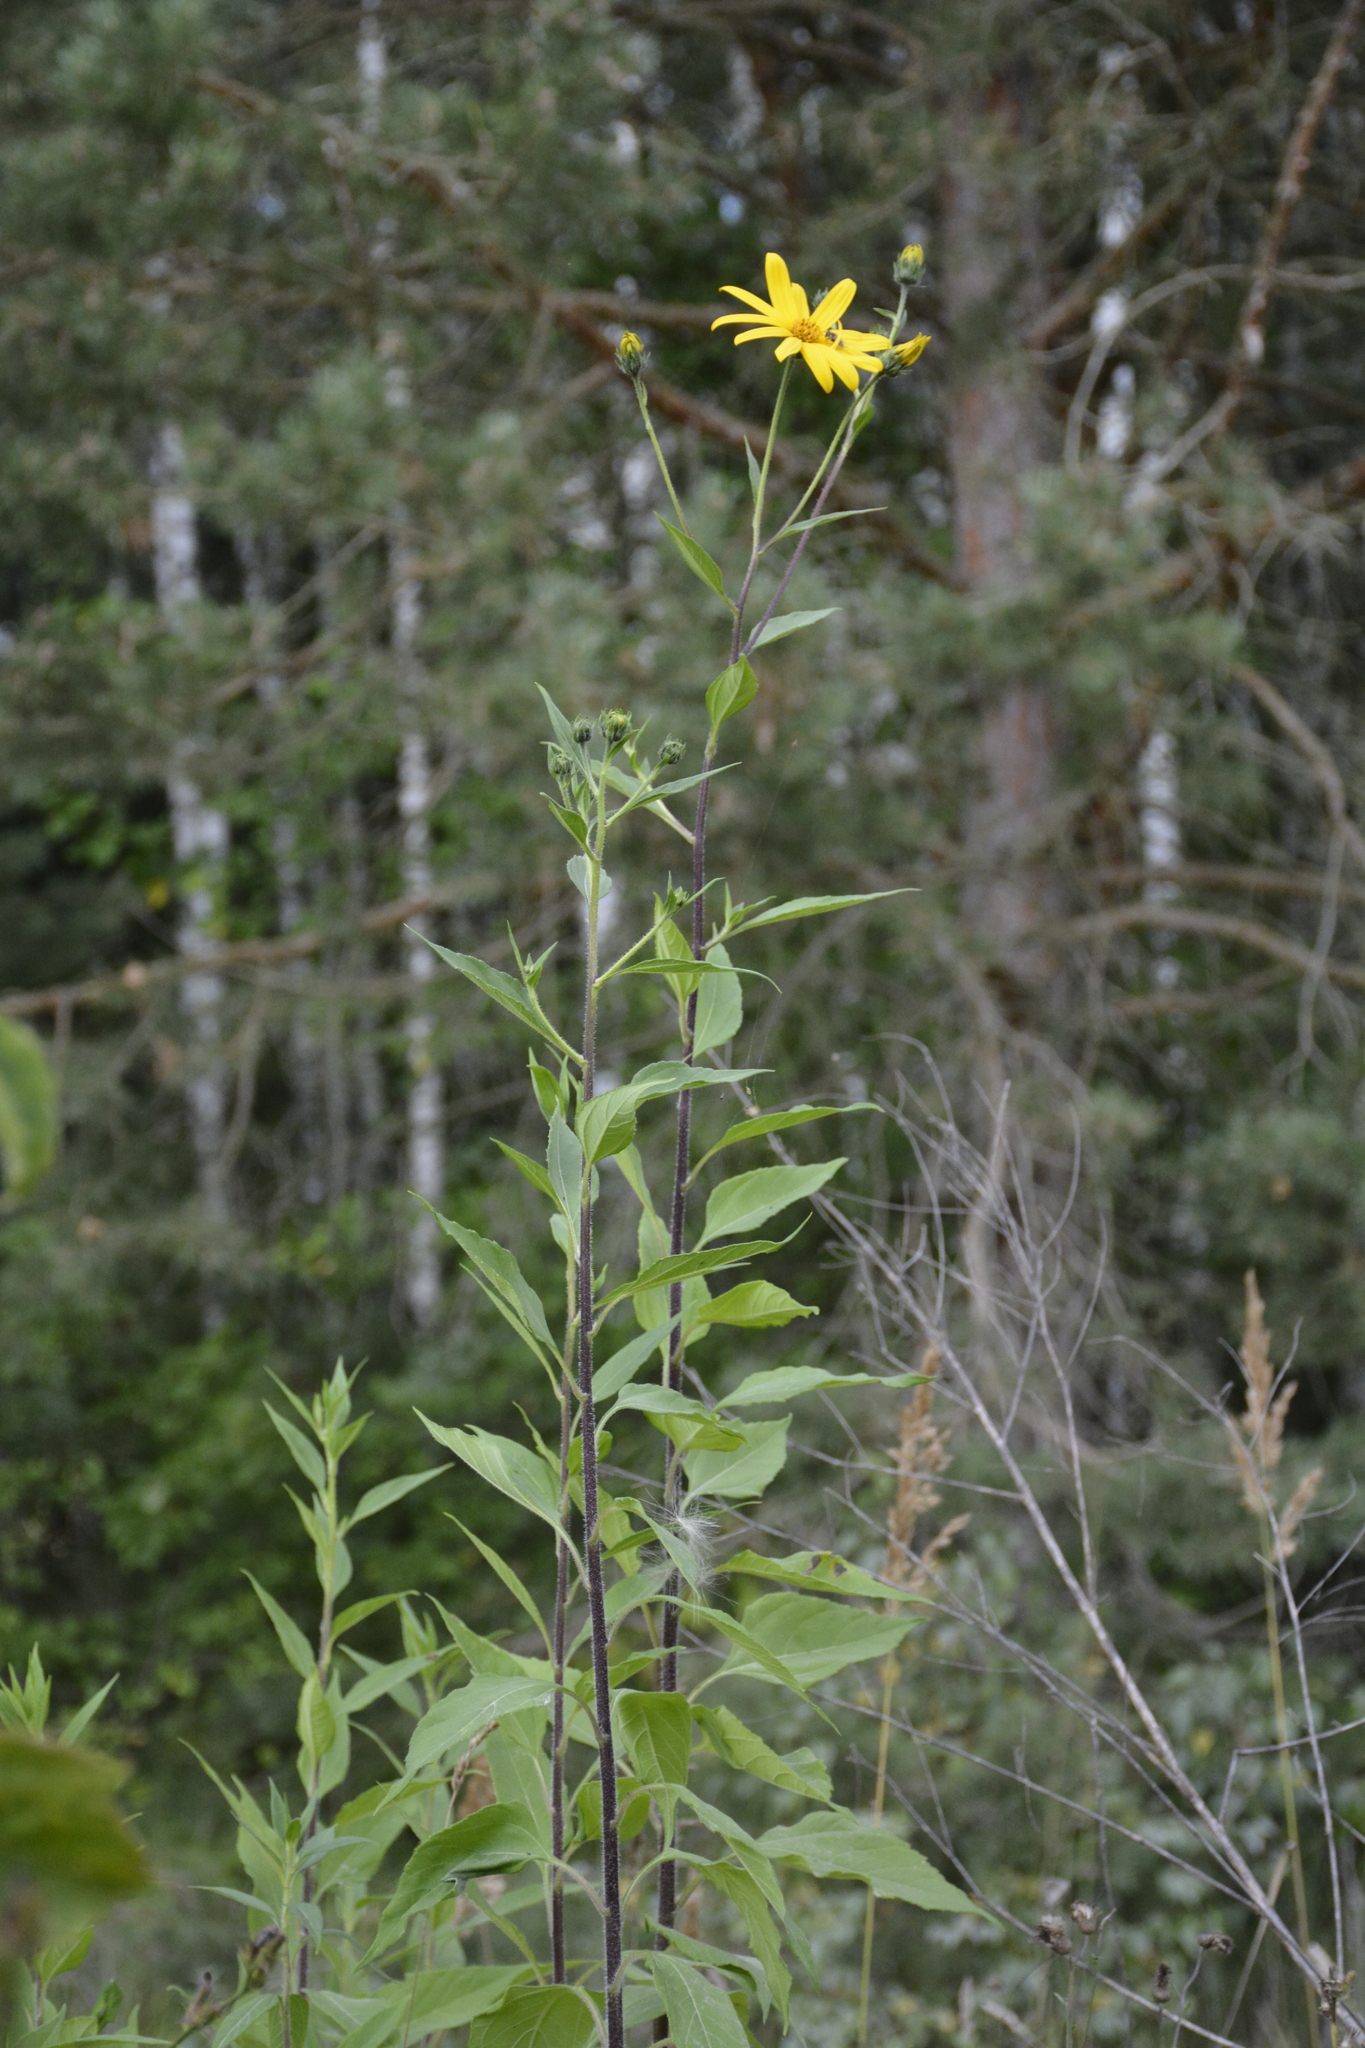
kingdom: Plantae
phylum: Tracheophyta
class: Magnoliopsida
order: Asterales
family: Asteraceae
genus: Helianthus
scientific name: Helianthus tuberosus
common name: Jerusalem artichoke
